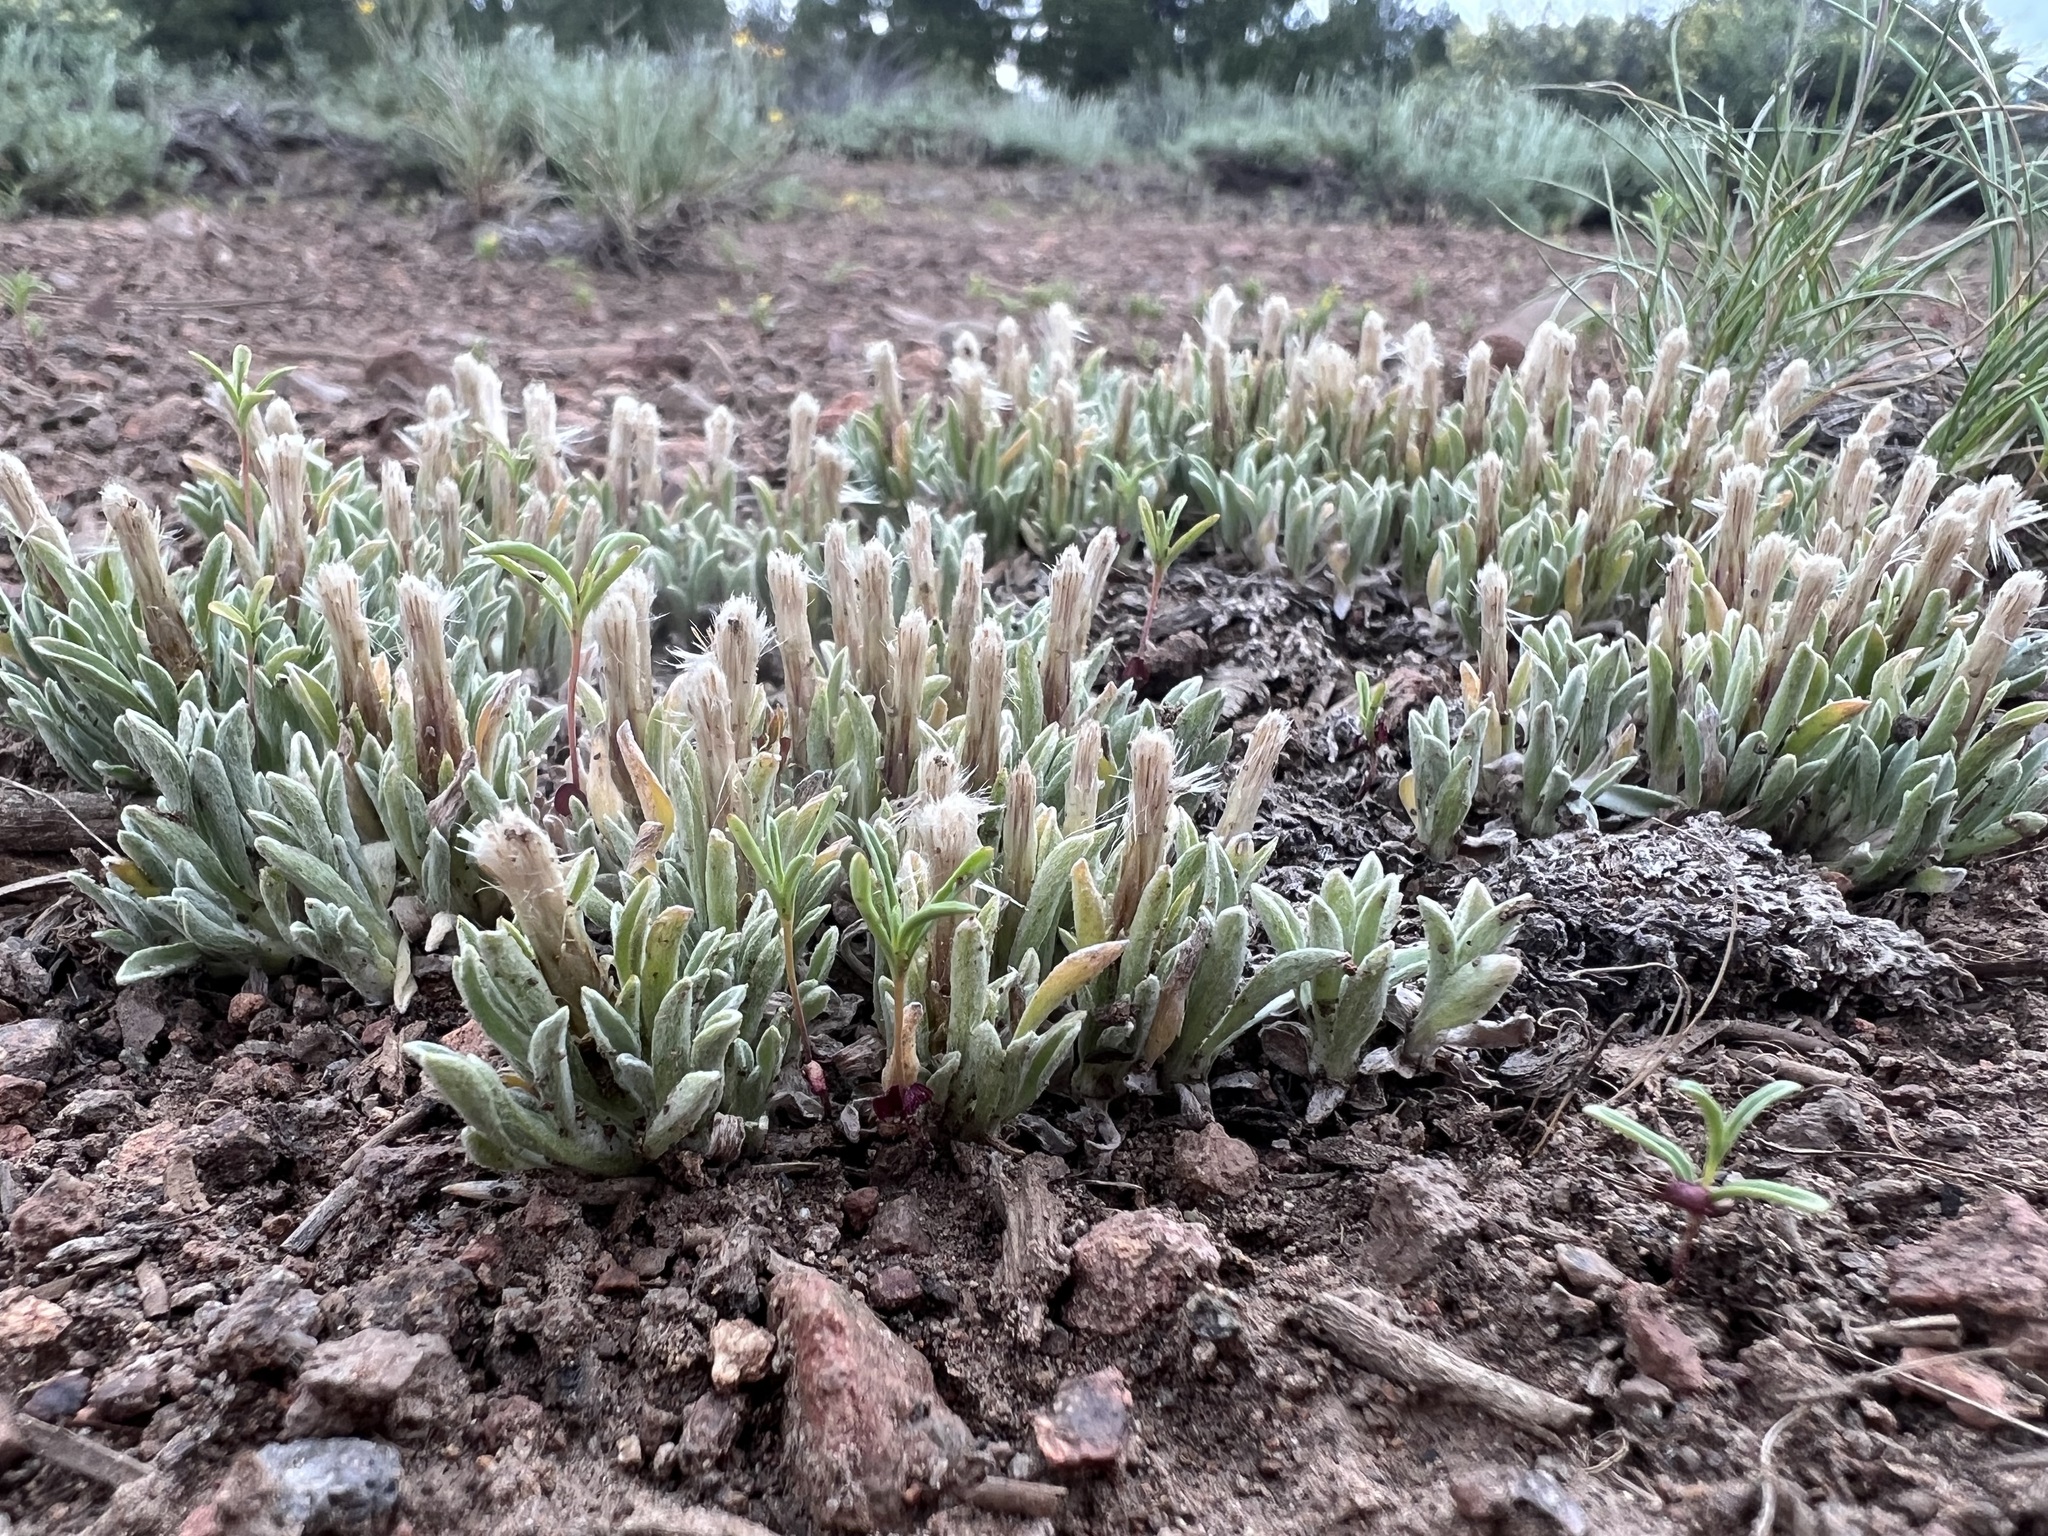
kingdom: Plantae
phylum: Tracheophyta
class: Magnoliopsida
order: Asterales
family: Asteraceae
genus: Antennaria
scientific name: Antennaria dimorpha
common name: Cushion pussytoes
